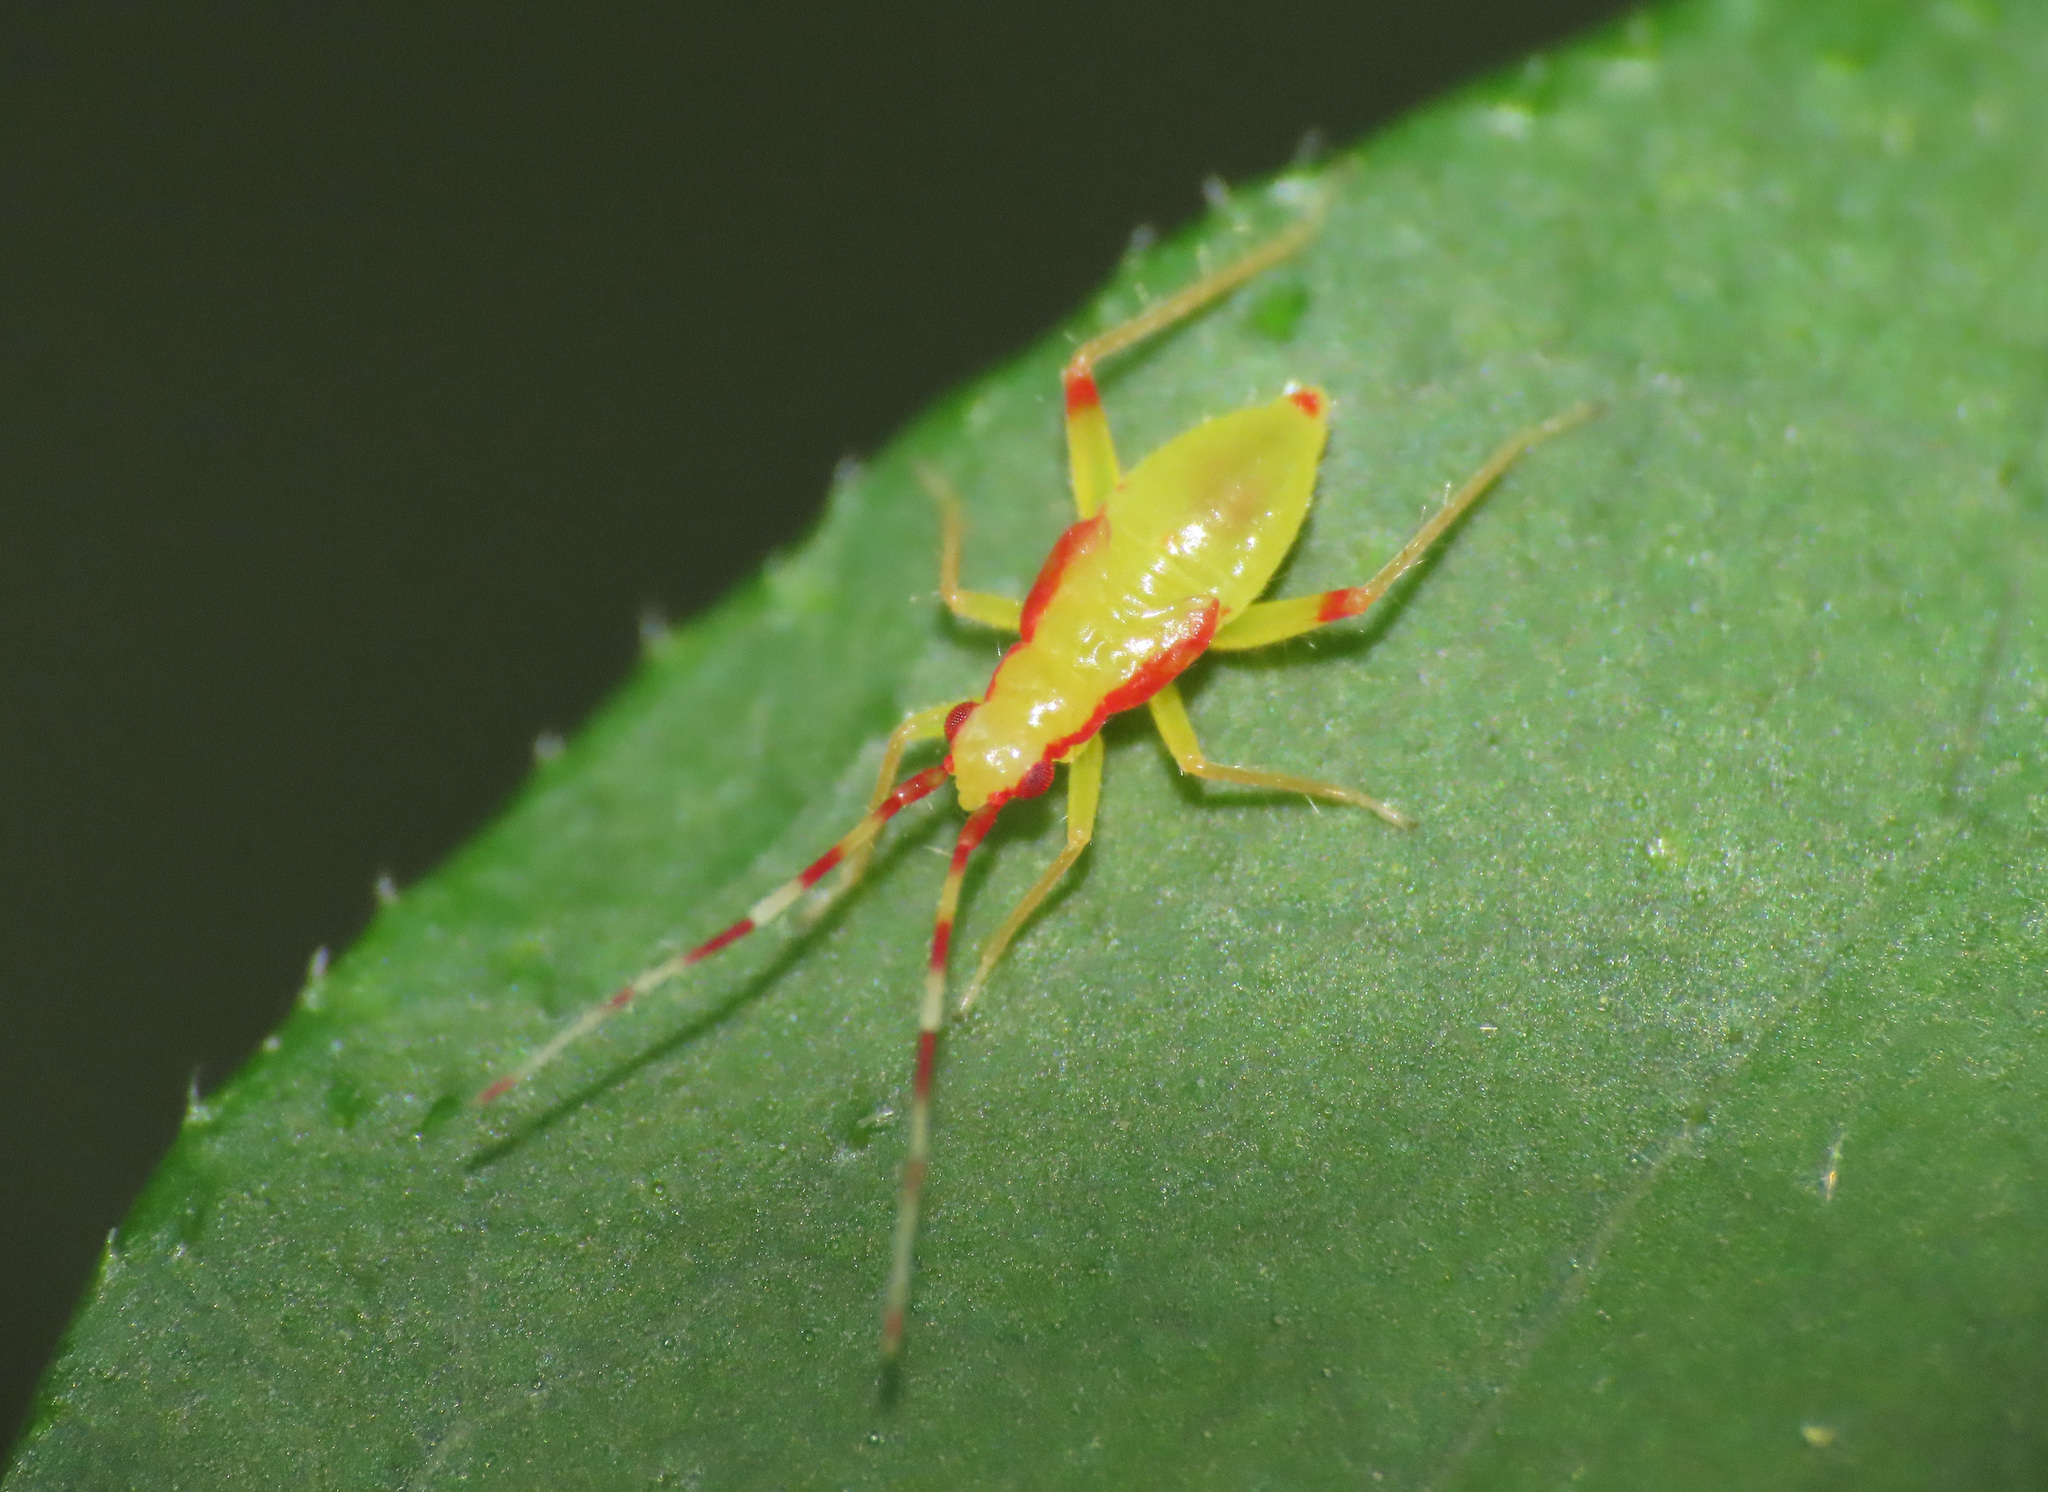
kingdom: Animalia
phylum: Arthropoda
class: Insecta
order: Hemiptera
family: Miridae
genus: Campyloneura
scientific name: Campyloneura virgula
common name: Predatory bug
